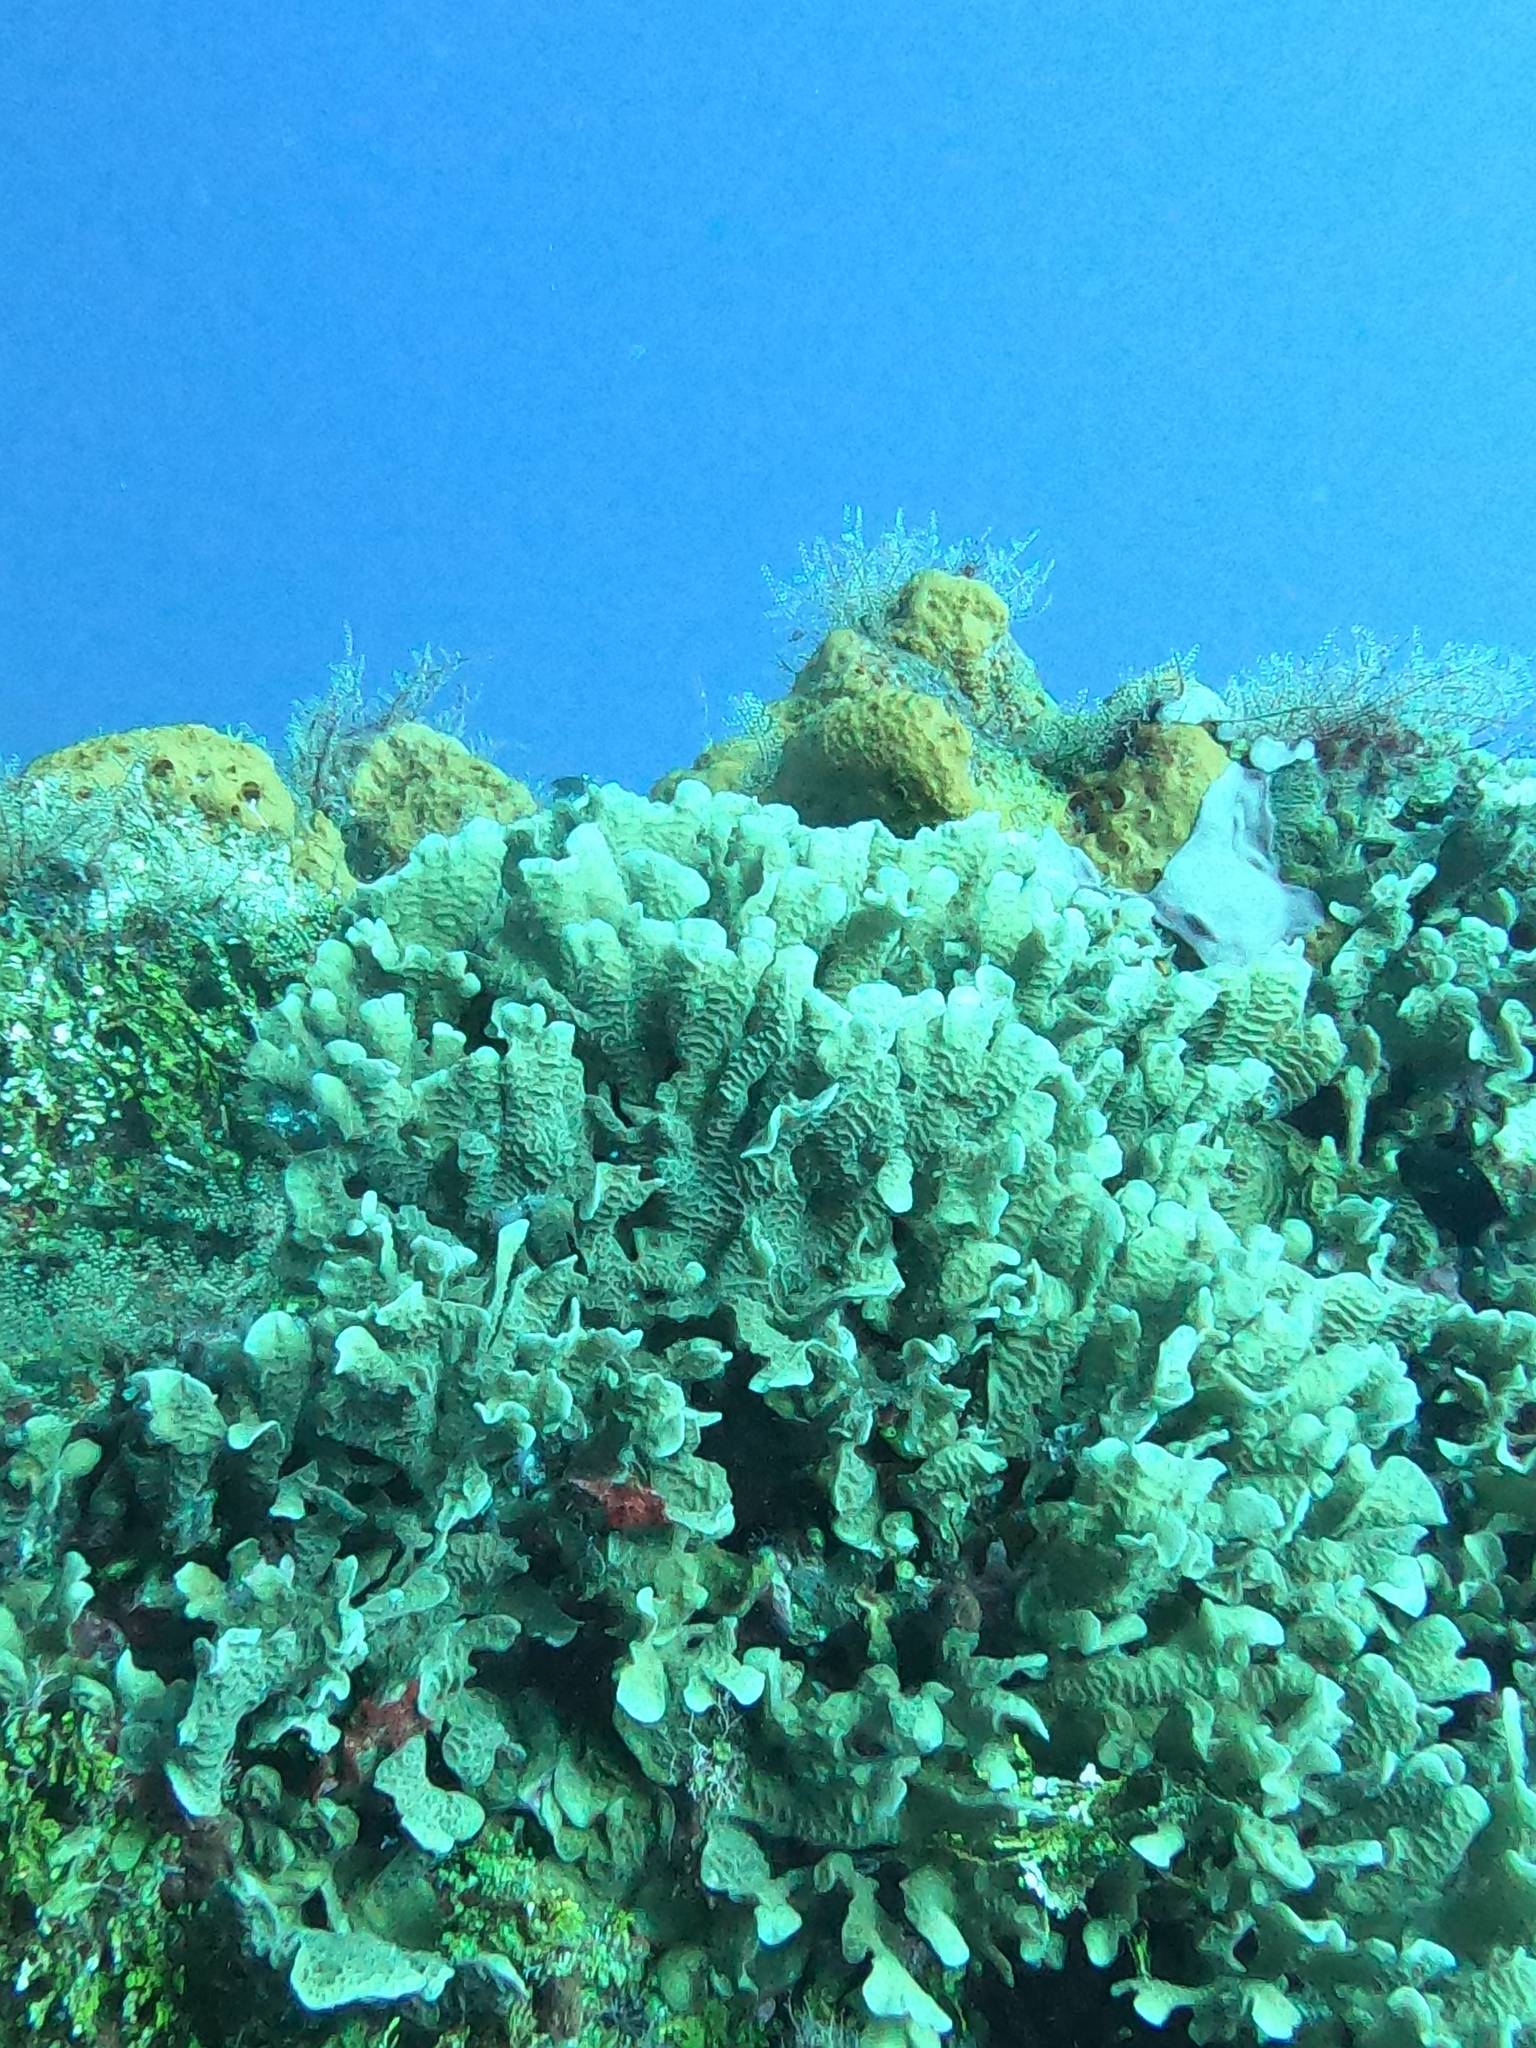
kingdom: Animalia
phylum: Cnidaria
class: Anthozoa
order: Scleractinia
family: Agariciidae
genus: Agaricia
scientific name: Agaricia tenuifolia
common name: Thin leaf lettuce coral
